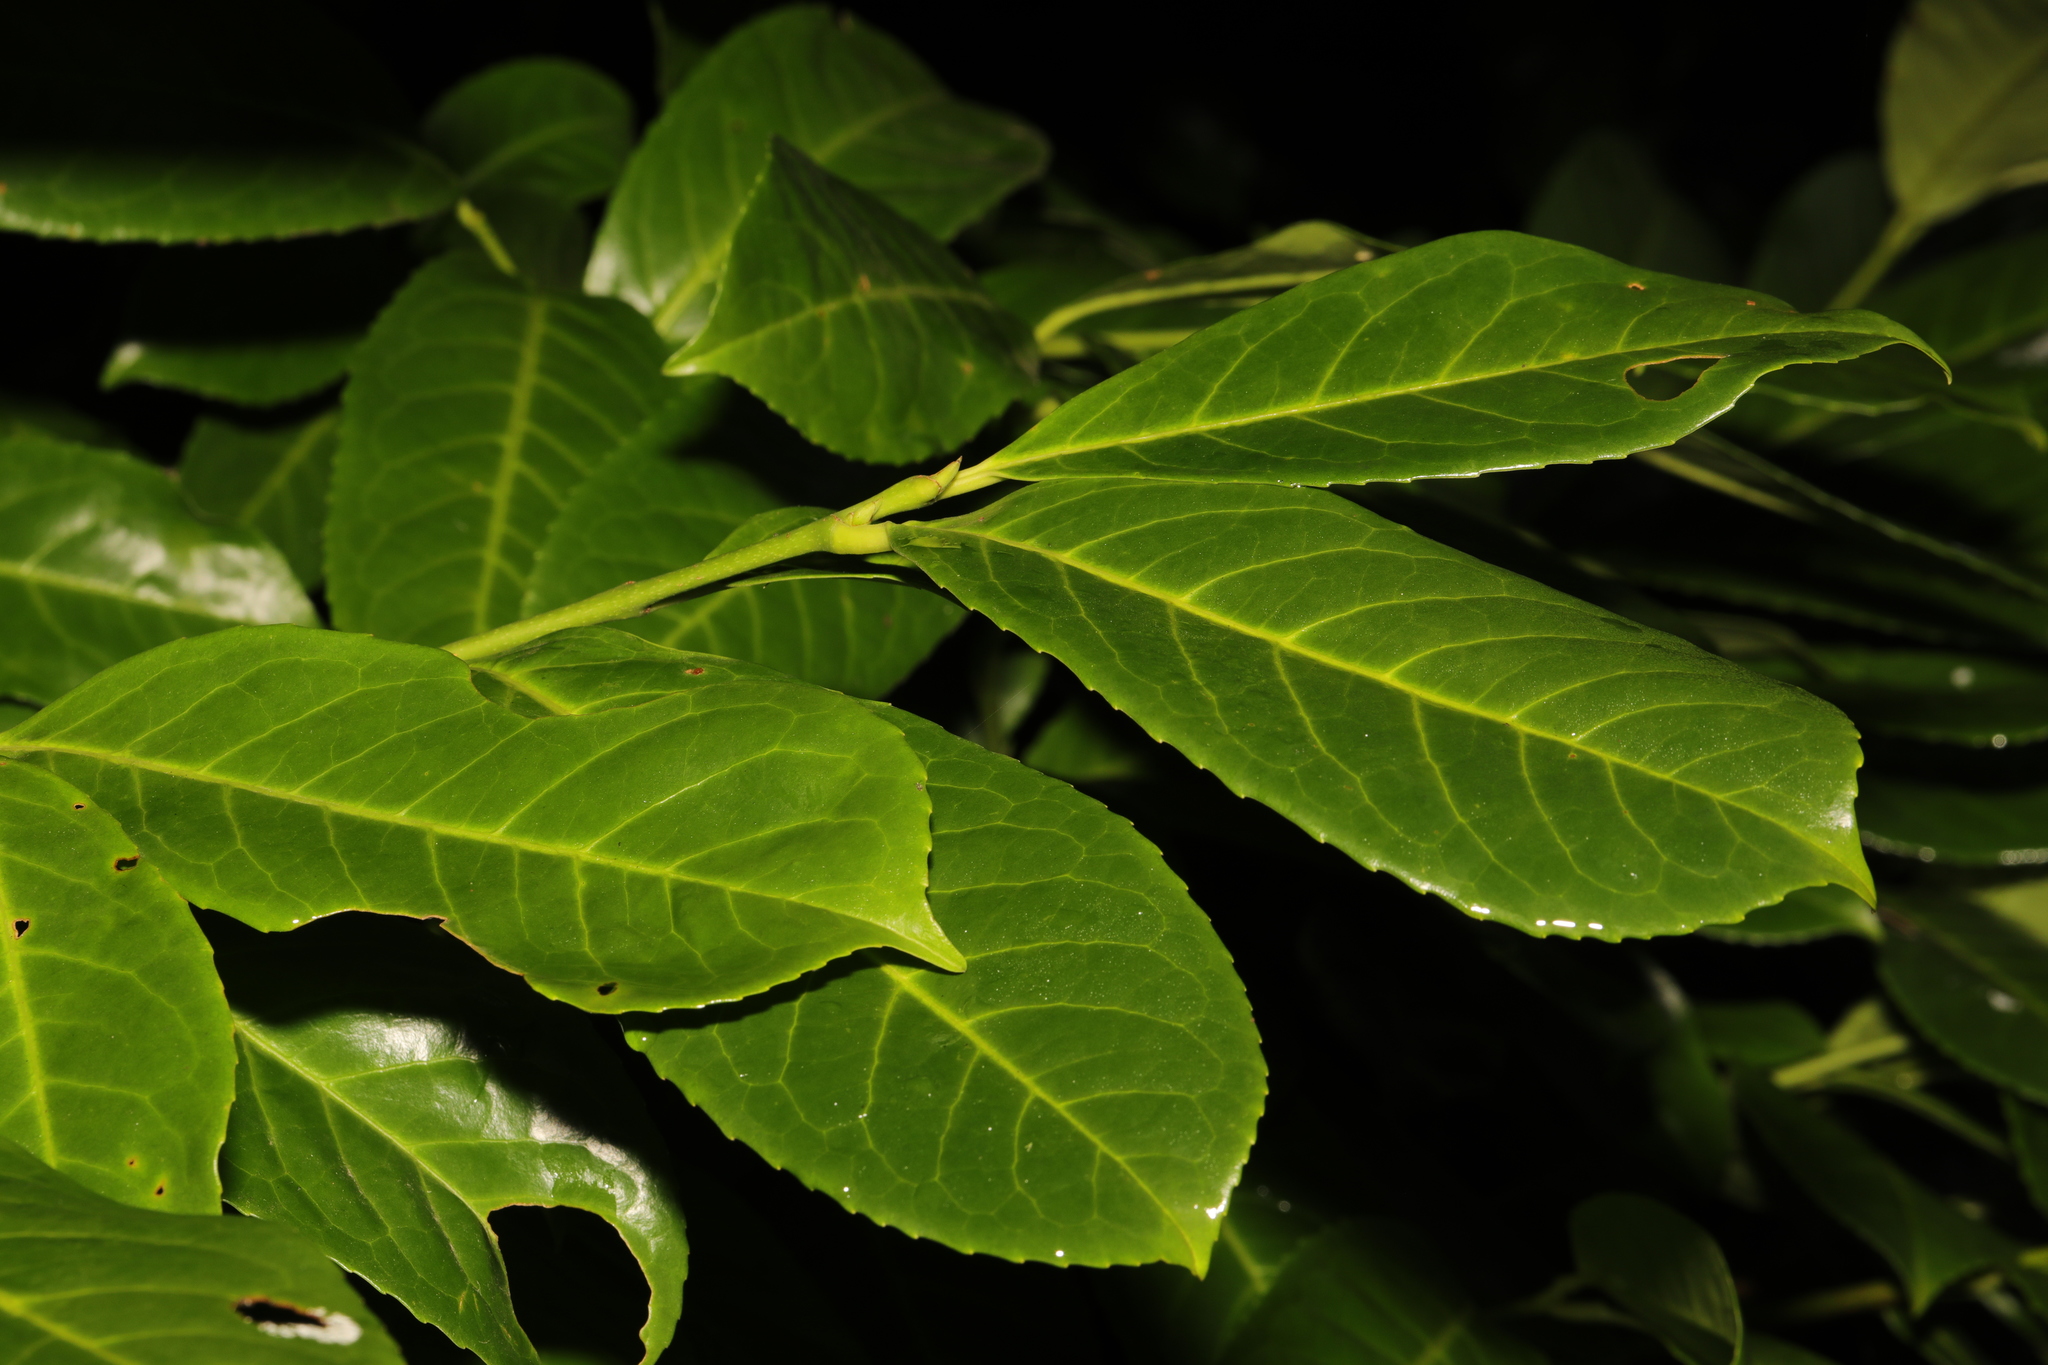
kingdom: Plantae
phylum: Tracheophyta
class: Magnoliopsida
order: Rosales
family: Rosaceae
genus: Prunus
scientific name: Prunus laurocerasus
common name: Cherry laurel
